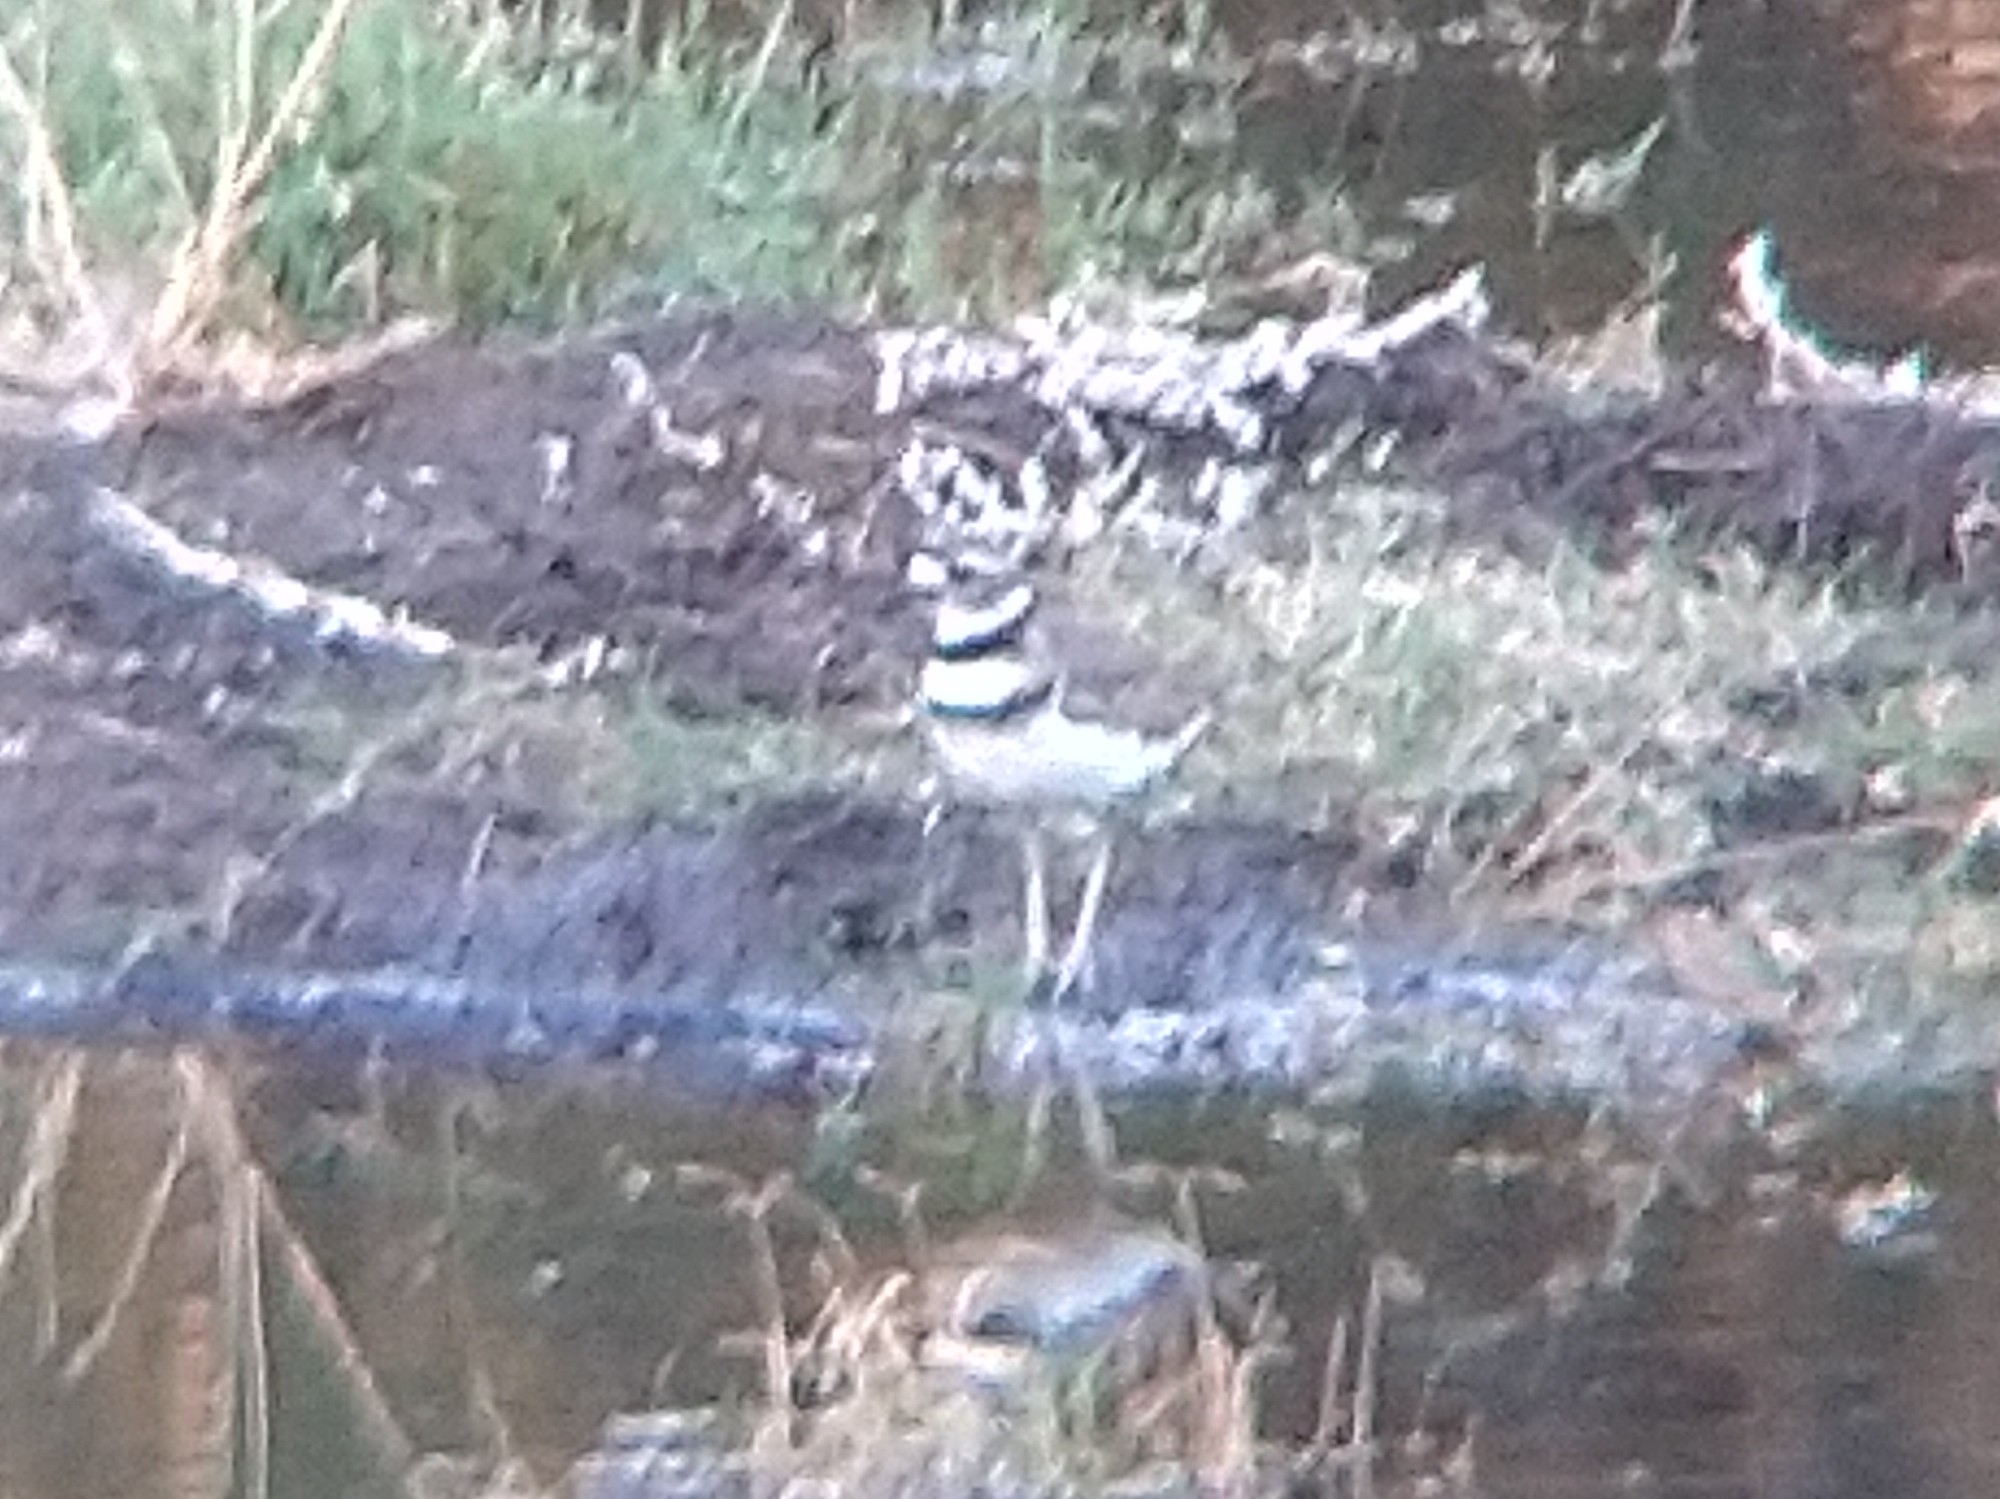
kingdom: Animalia
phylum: Chordata
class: Aves
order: Charadriiformes
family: Charadriidae
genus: Charadrius
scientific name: Charadrius vociferus
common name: Killdeer
